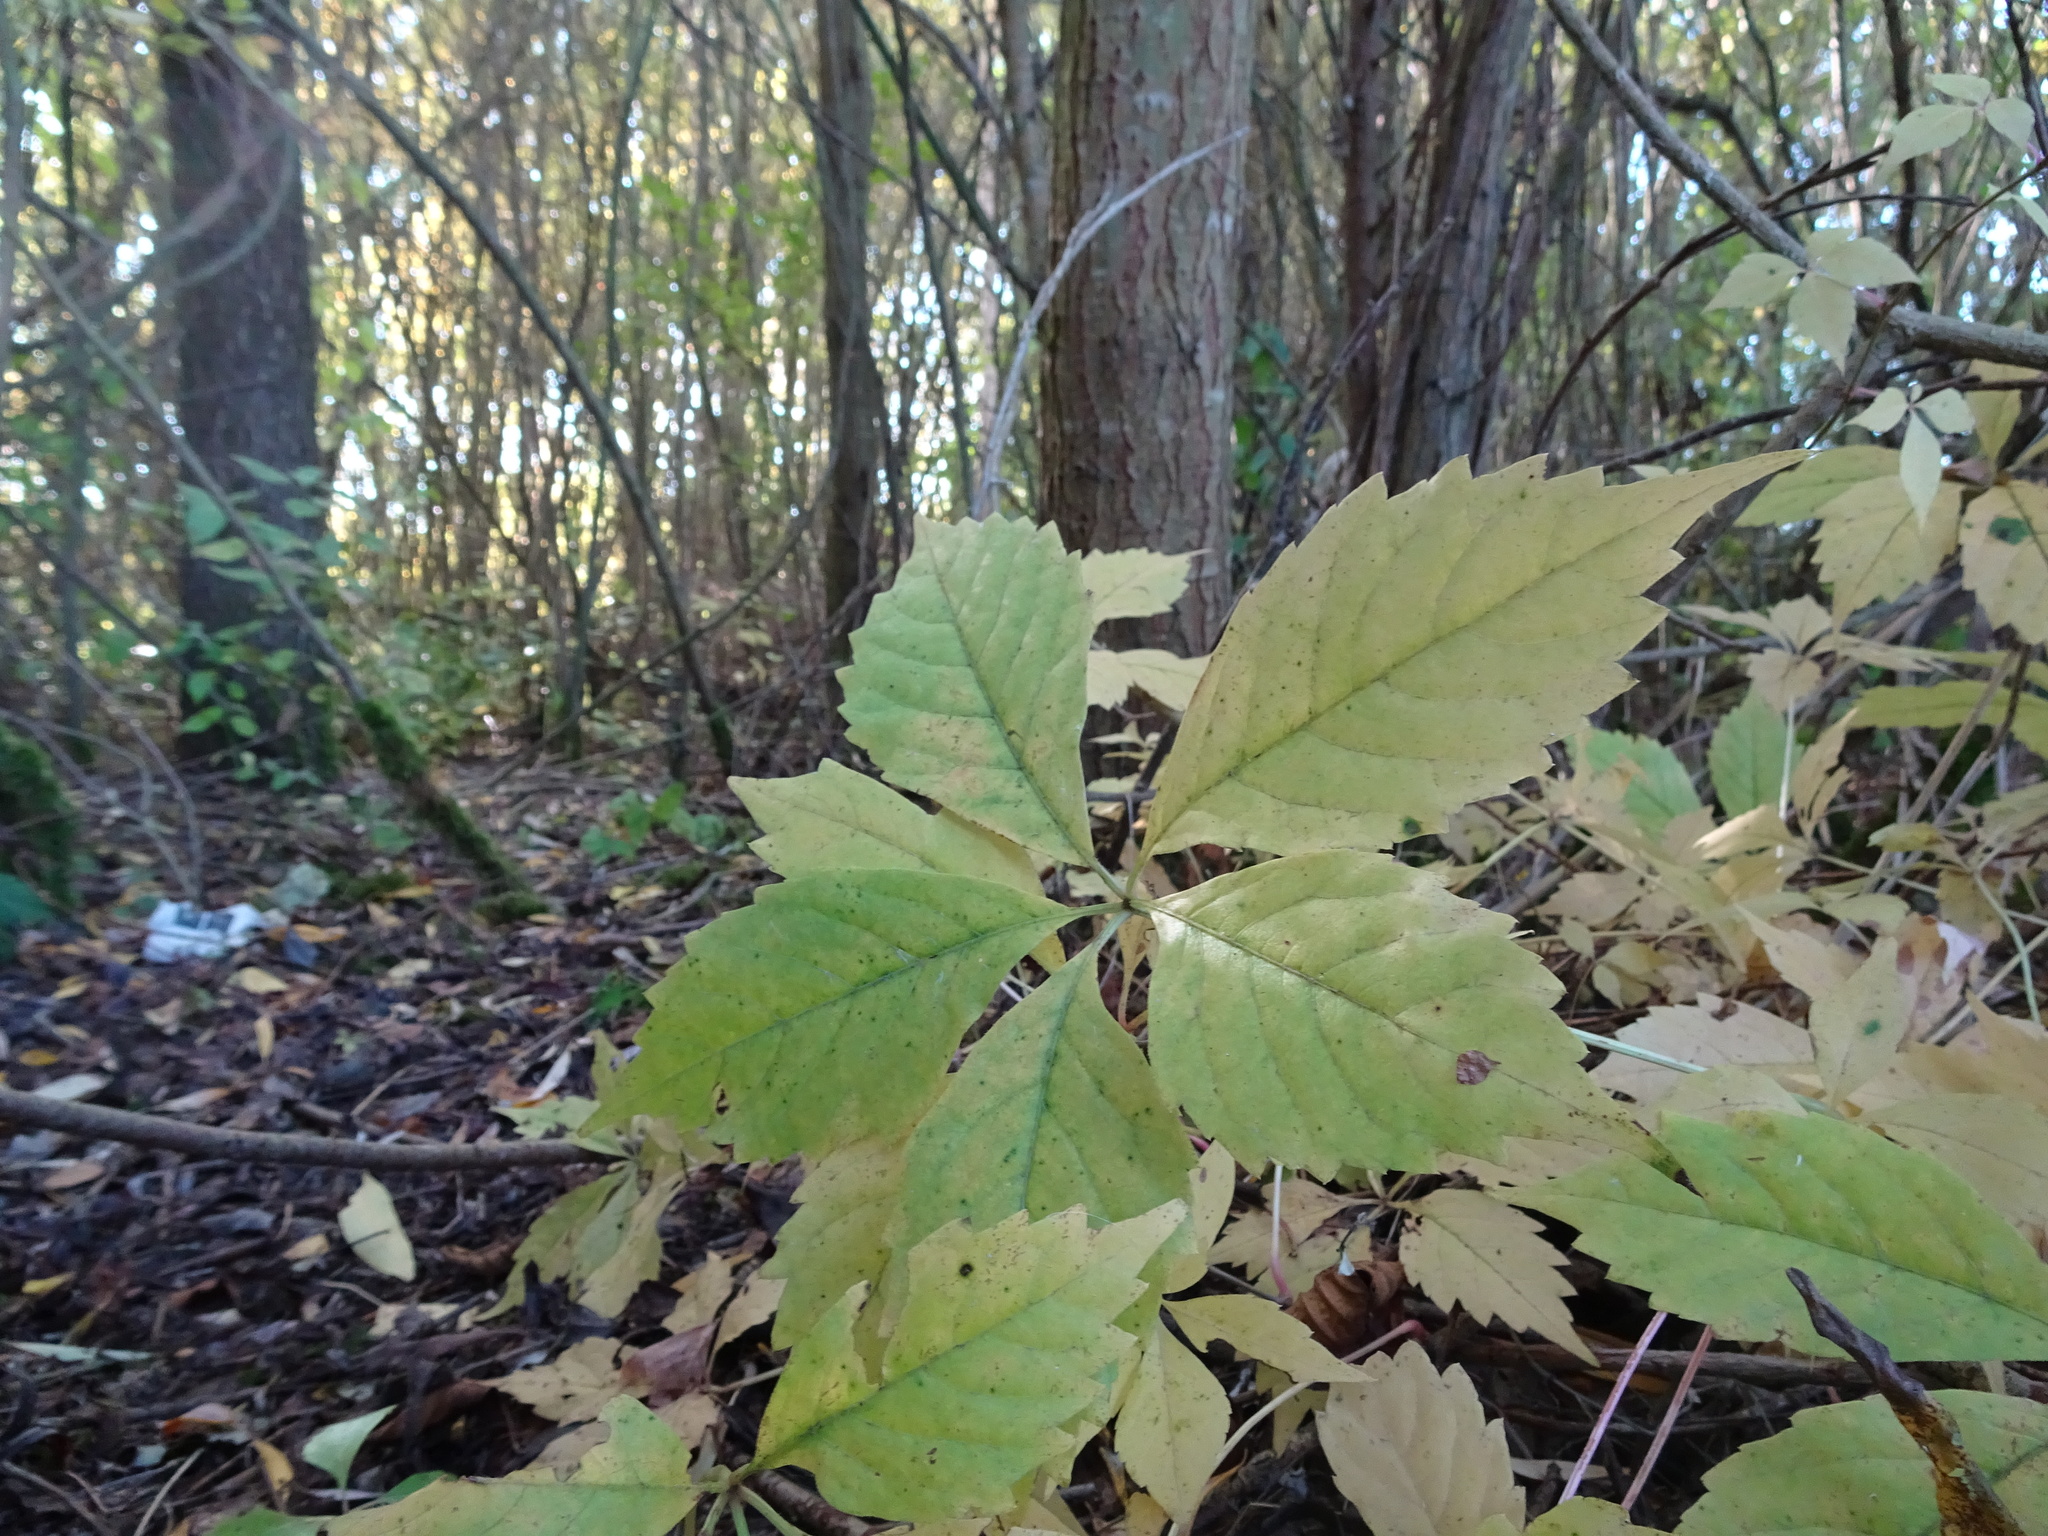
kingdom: Plantae
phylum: Tracheophyta
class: Magnoliopsida
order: Vitales
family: Vitaceae
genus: Parthenocissus
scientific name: Parthenocissus quinquefolia
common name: Virginia-creeper
